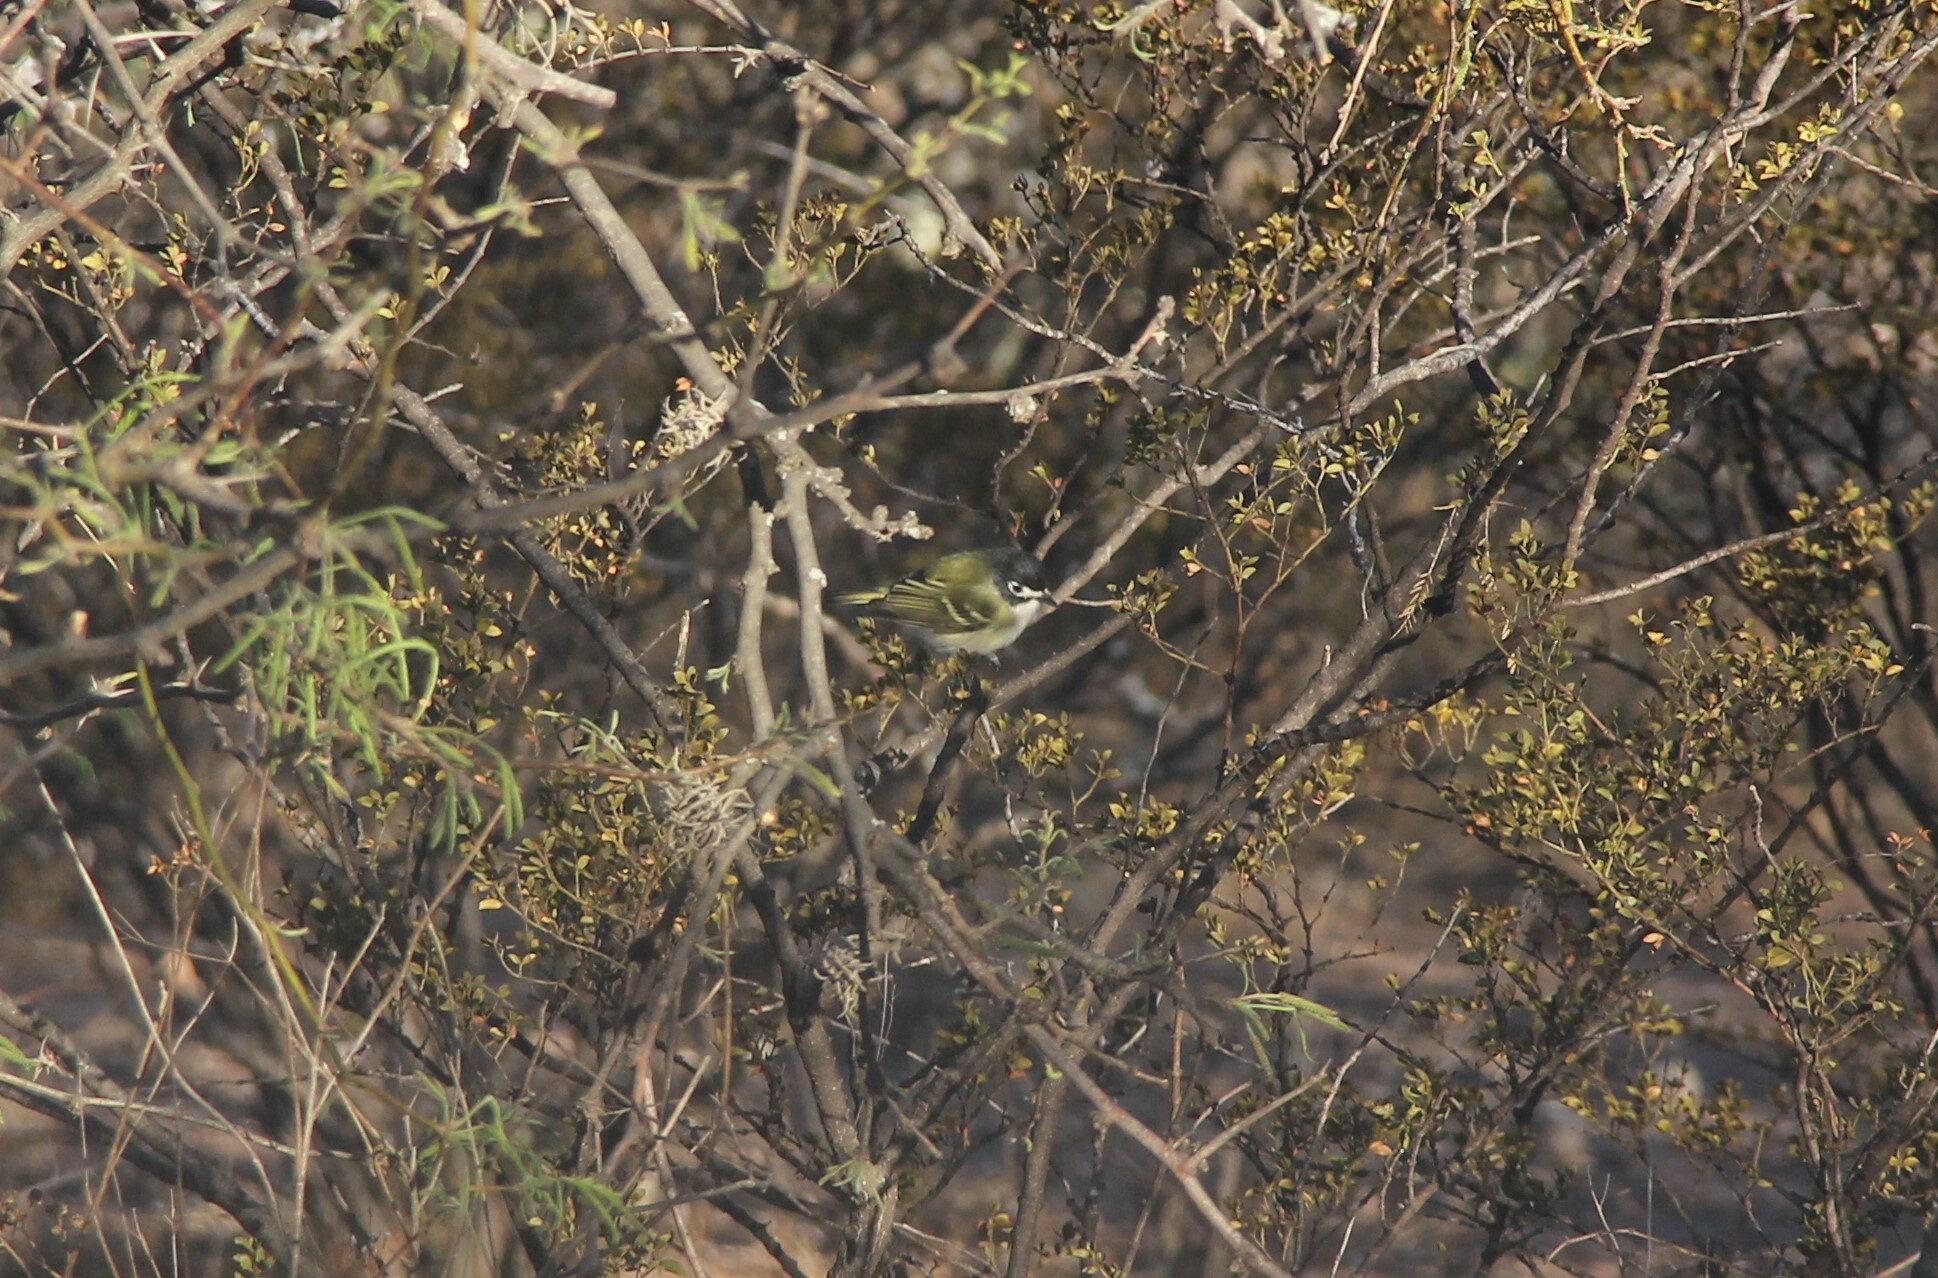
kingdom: Animalia
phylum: Chordata
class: Aves
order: Passeriformes
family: Vireonidae
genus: Vireo
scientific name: Vireo atricapilla
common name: Black-capped vireo
